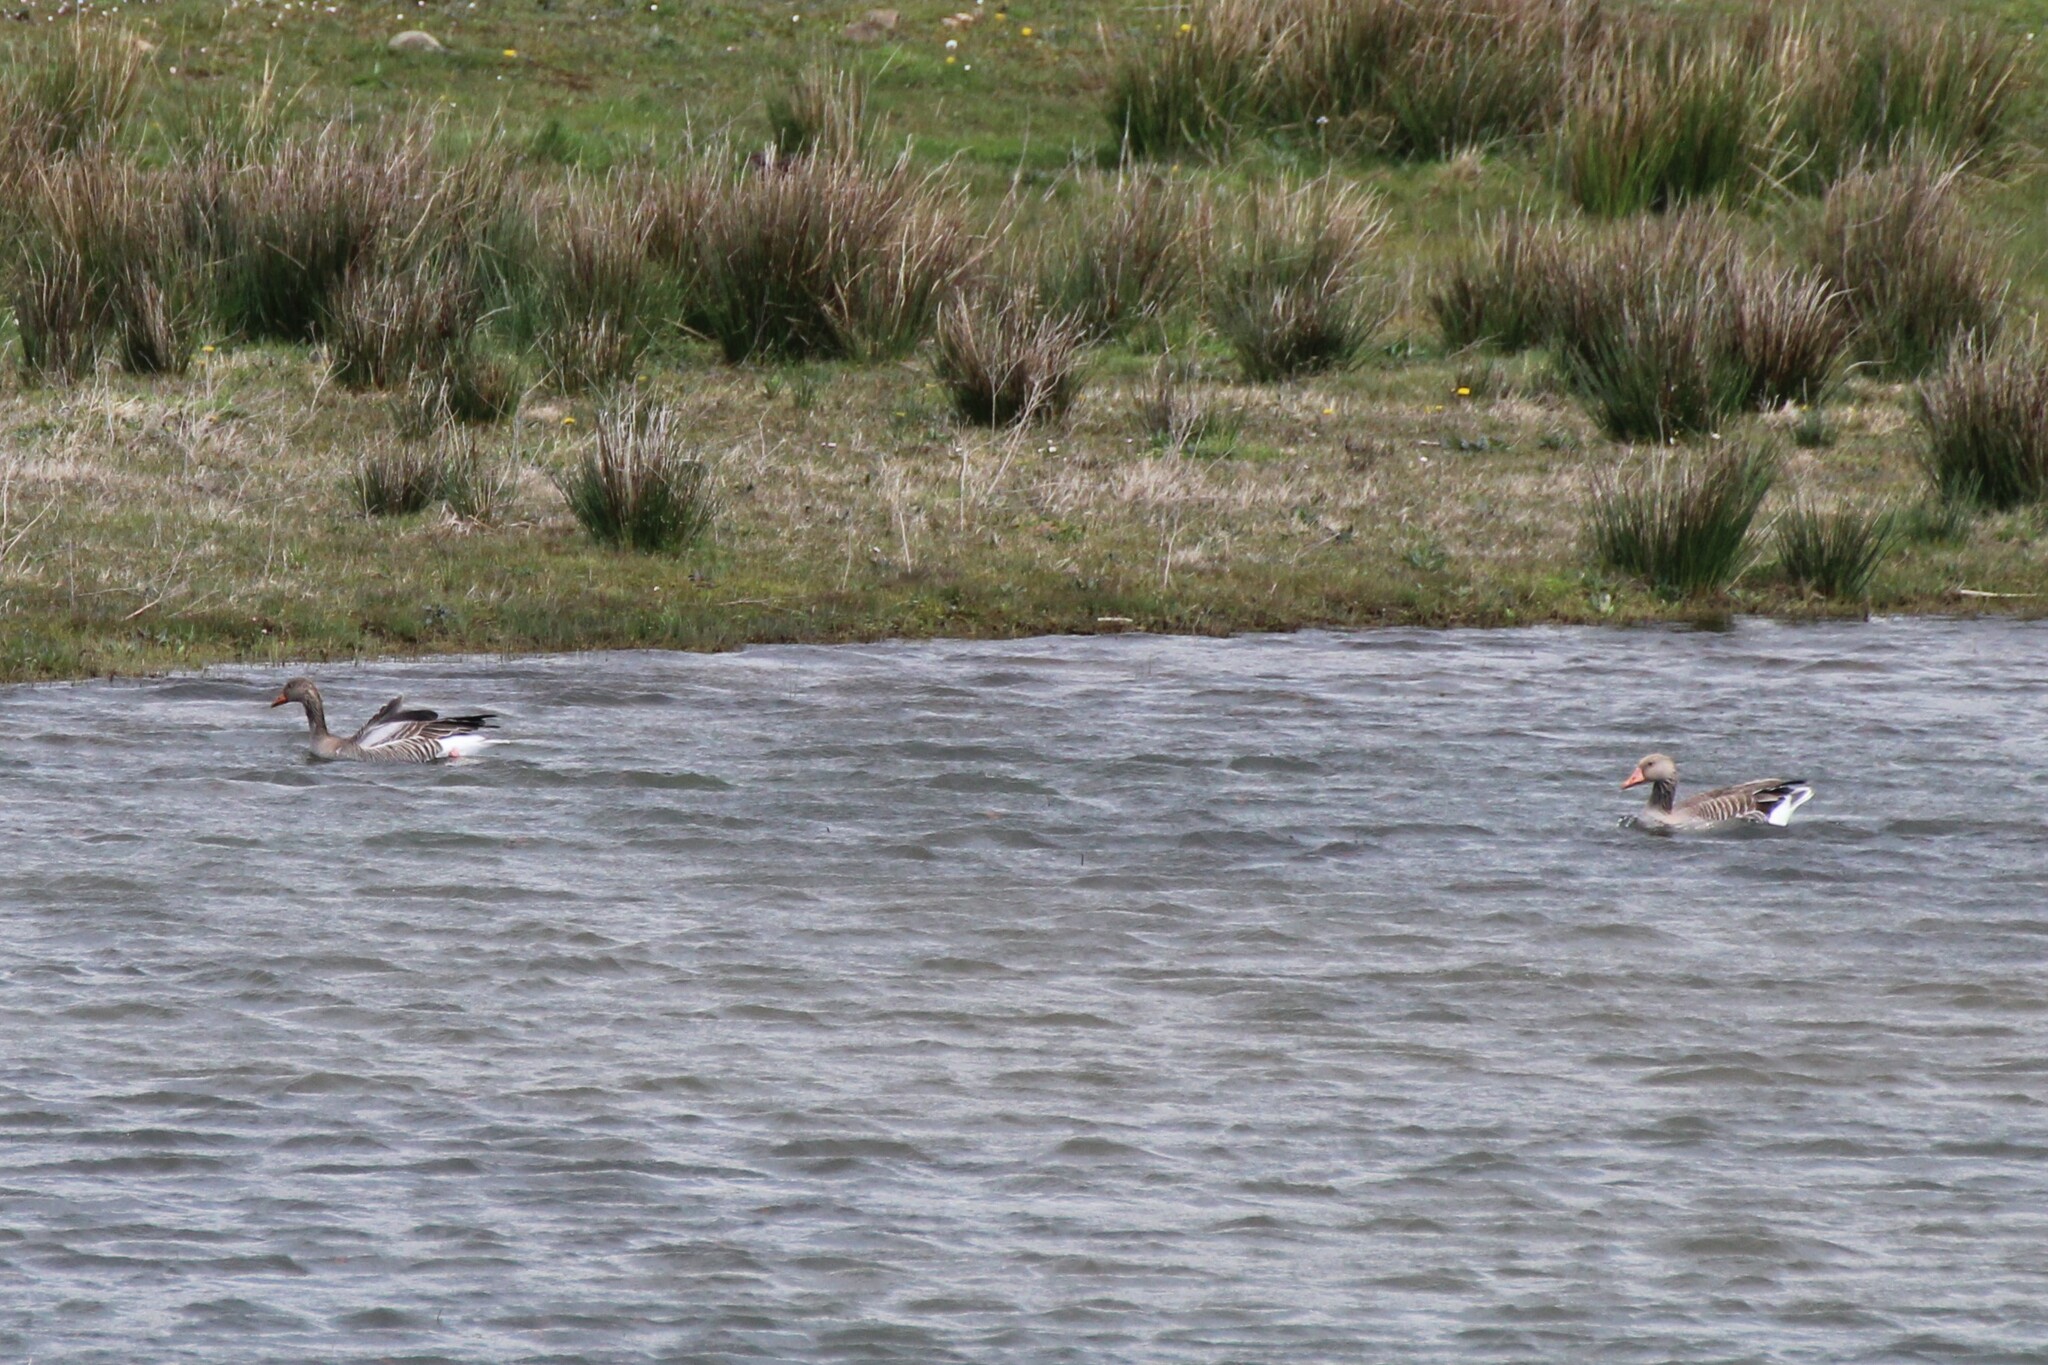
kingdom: Animalia
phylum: Chordata
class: Aves
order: Anseriformes
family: Anatidae
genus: Anser
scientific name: Anser anser
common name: Greylag goose
